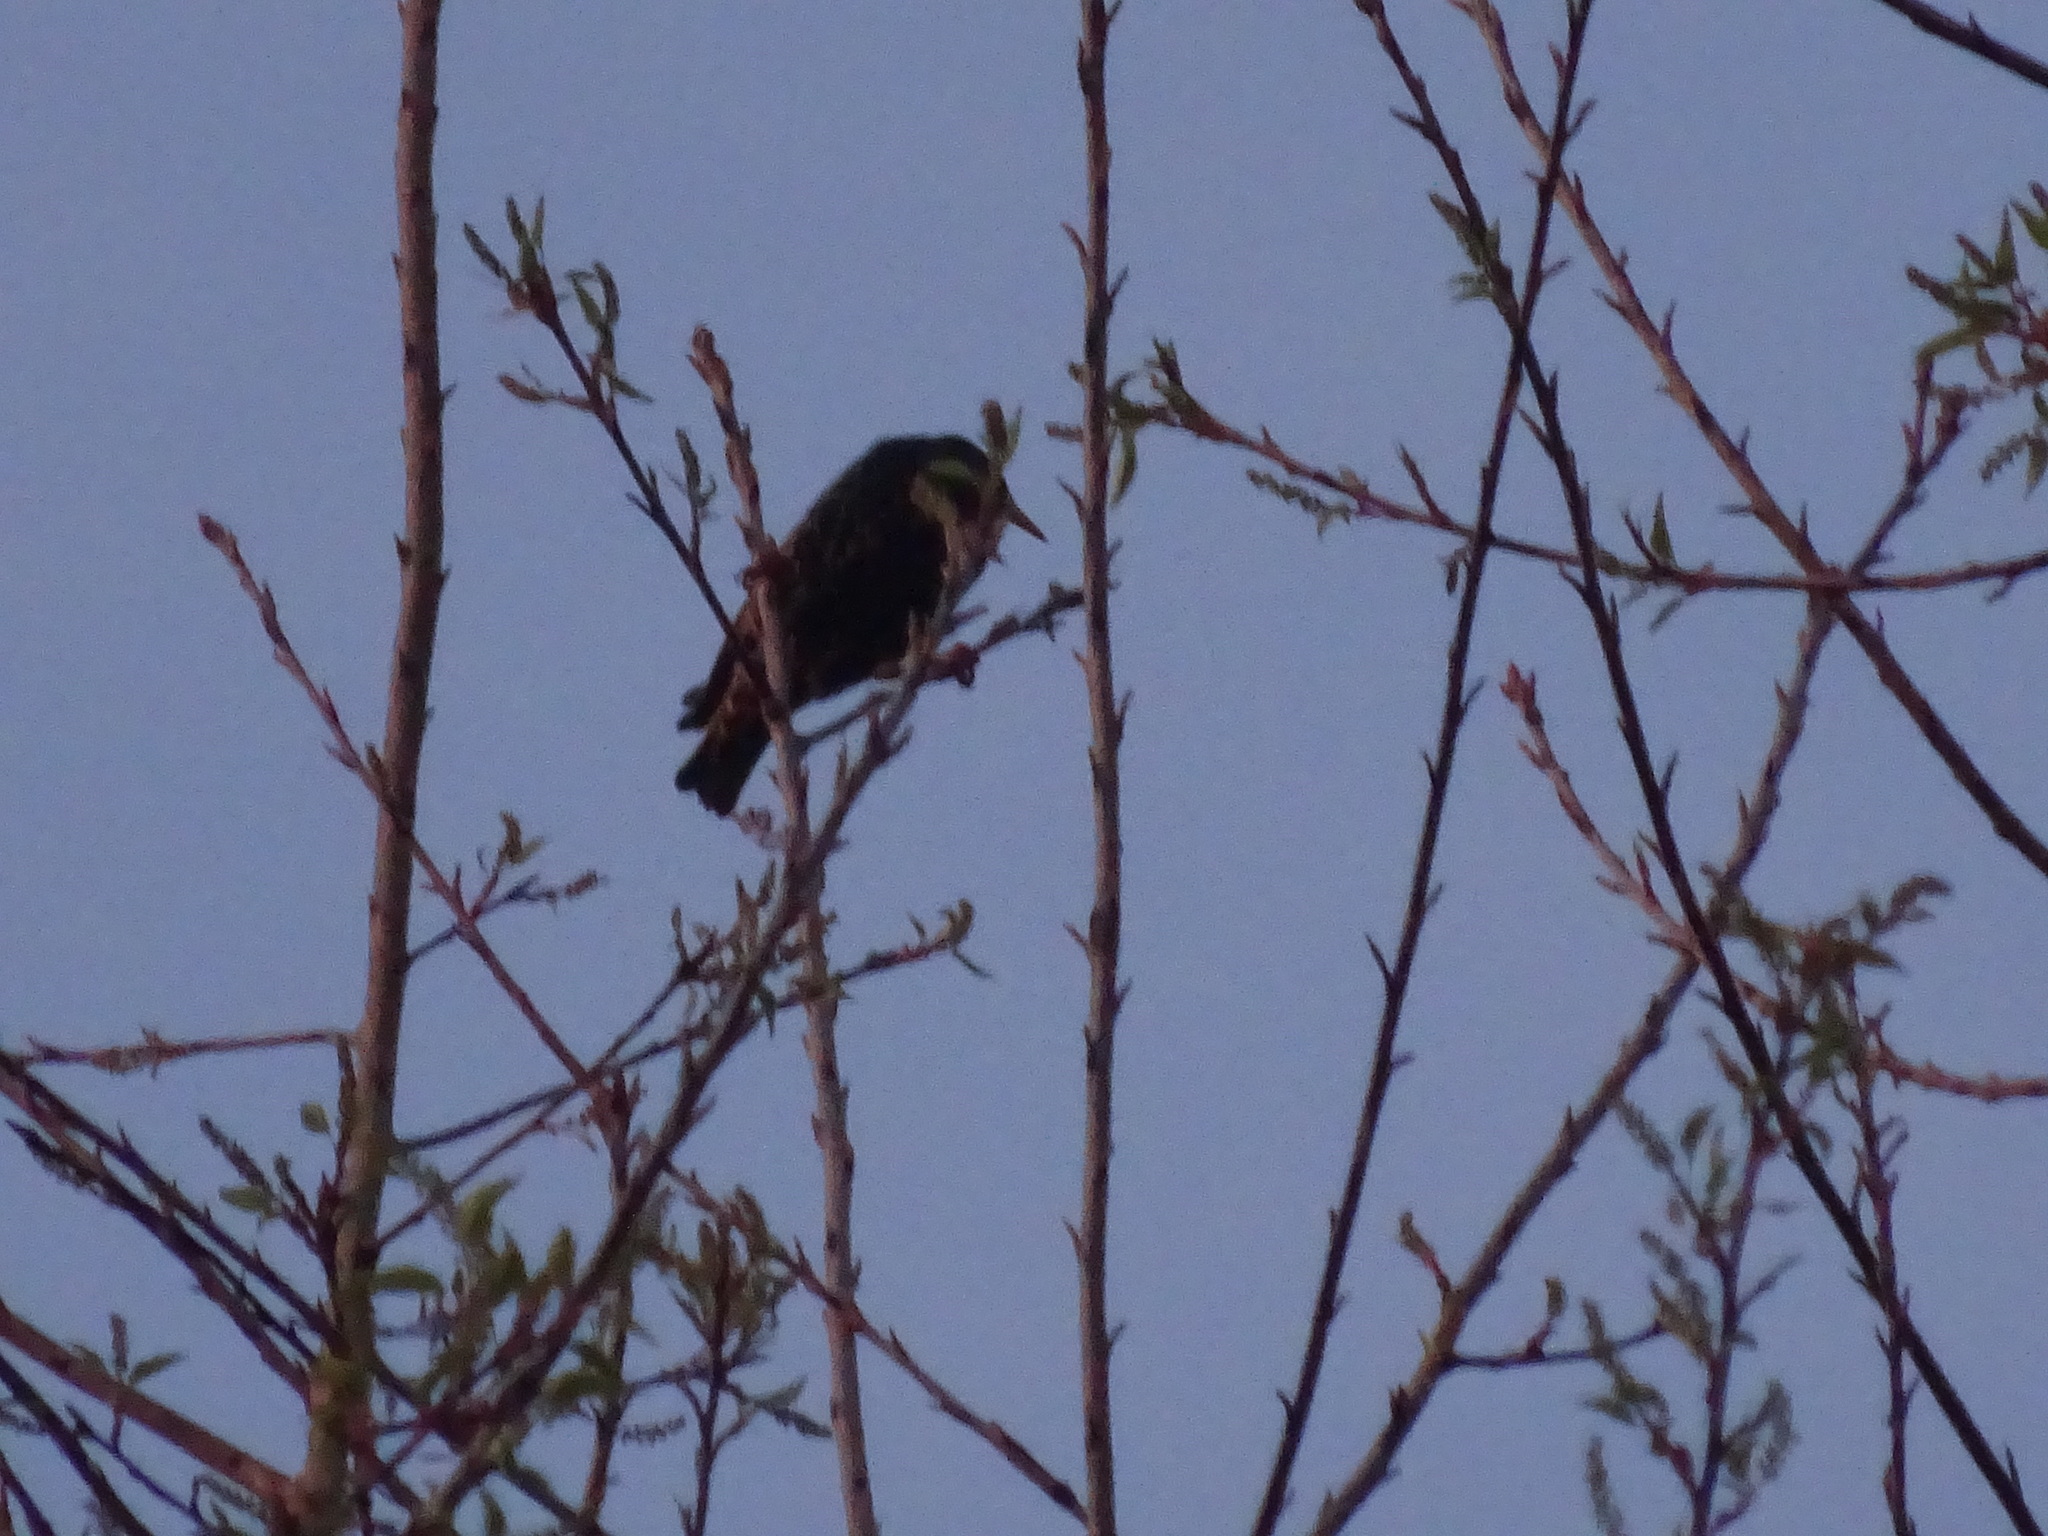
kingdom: Animalia
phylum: Chordata
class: Aves
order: Passeriformes
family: Sturnidae
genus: Sturnus
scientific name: Sturnus vulgaris
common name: Common starling
